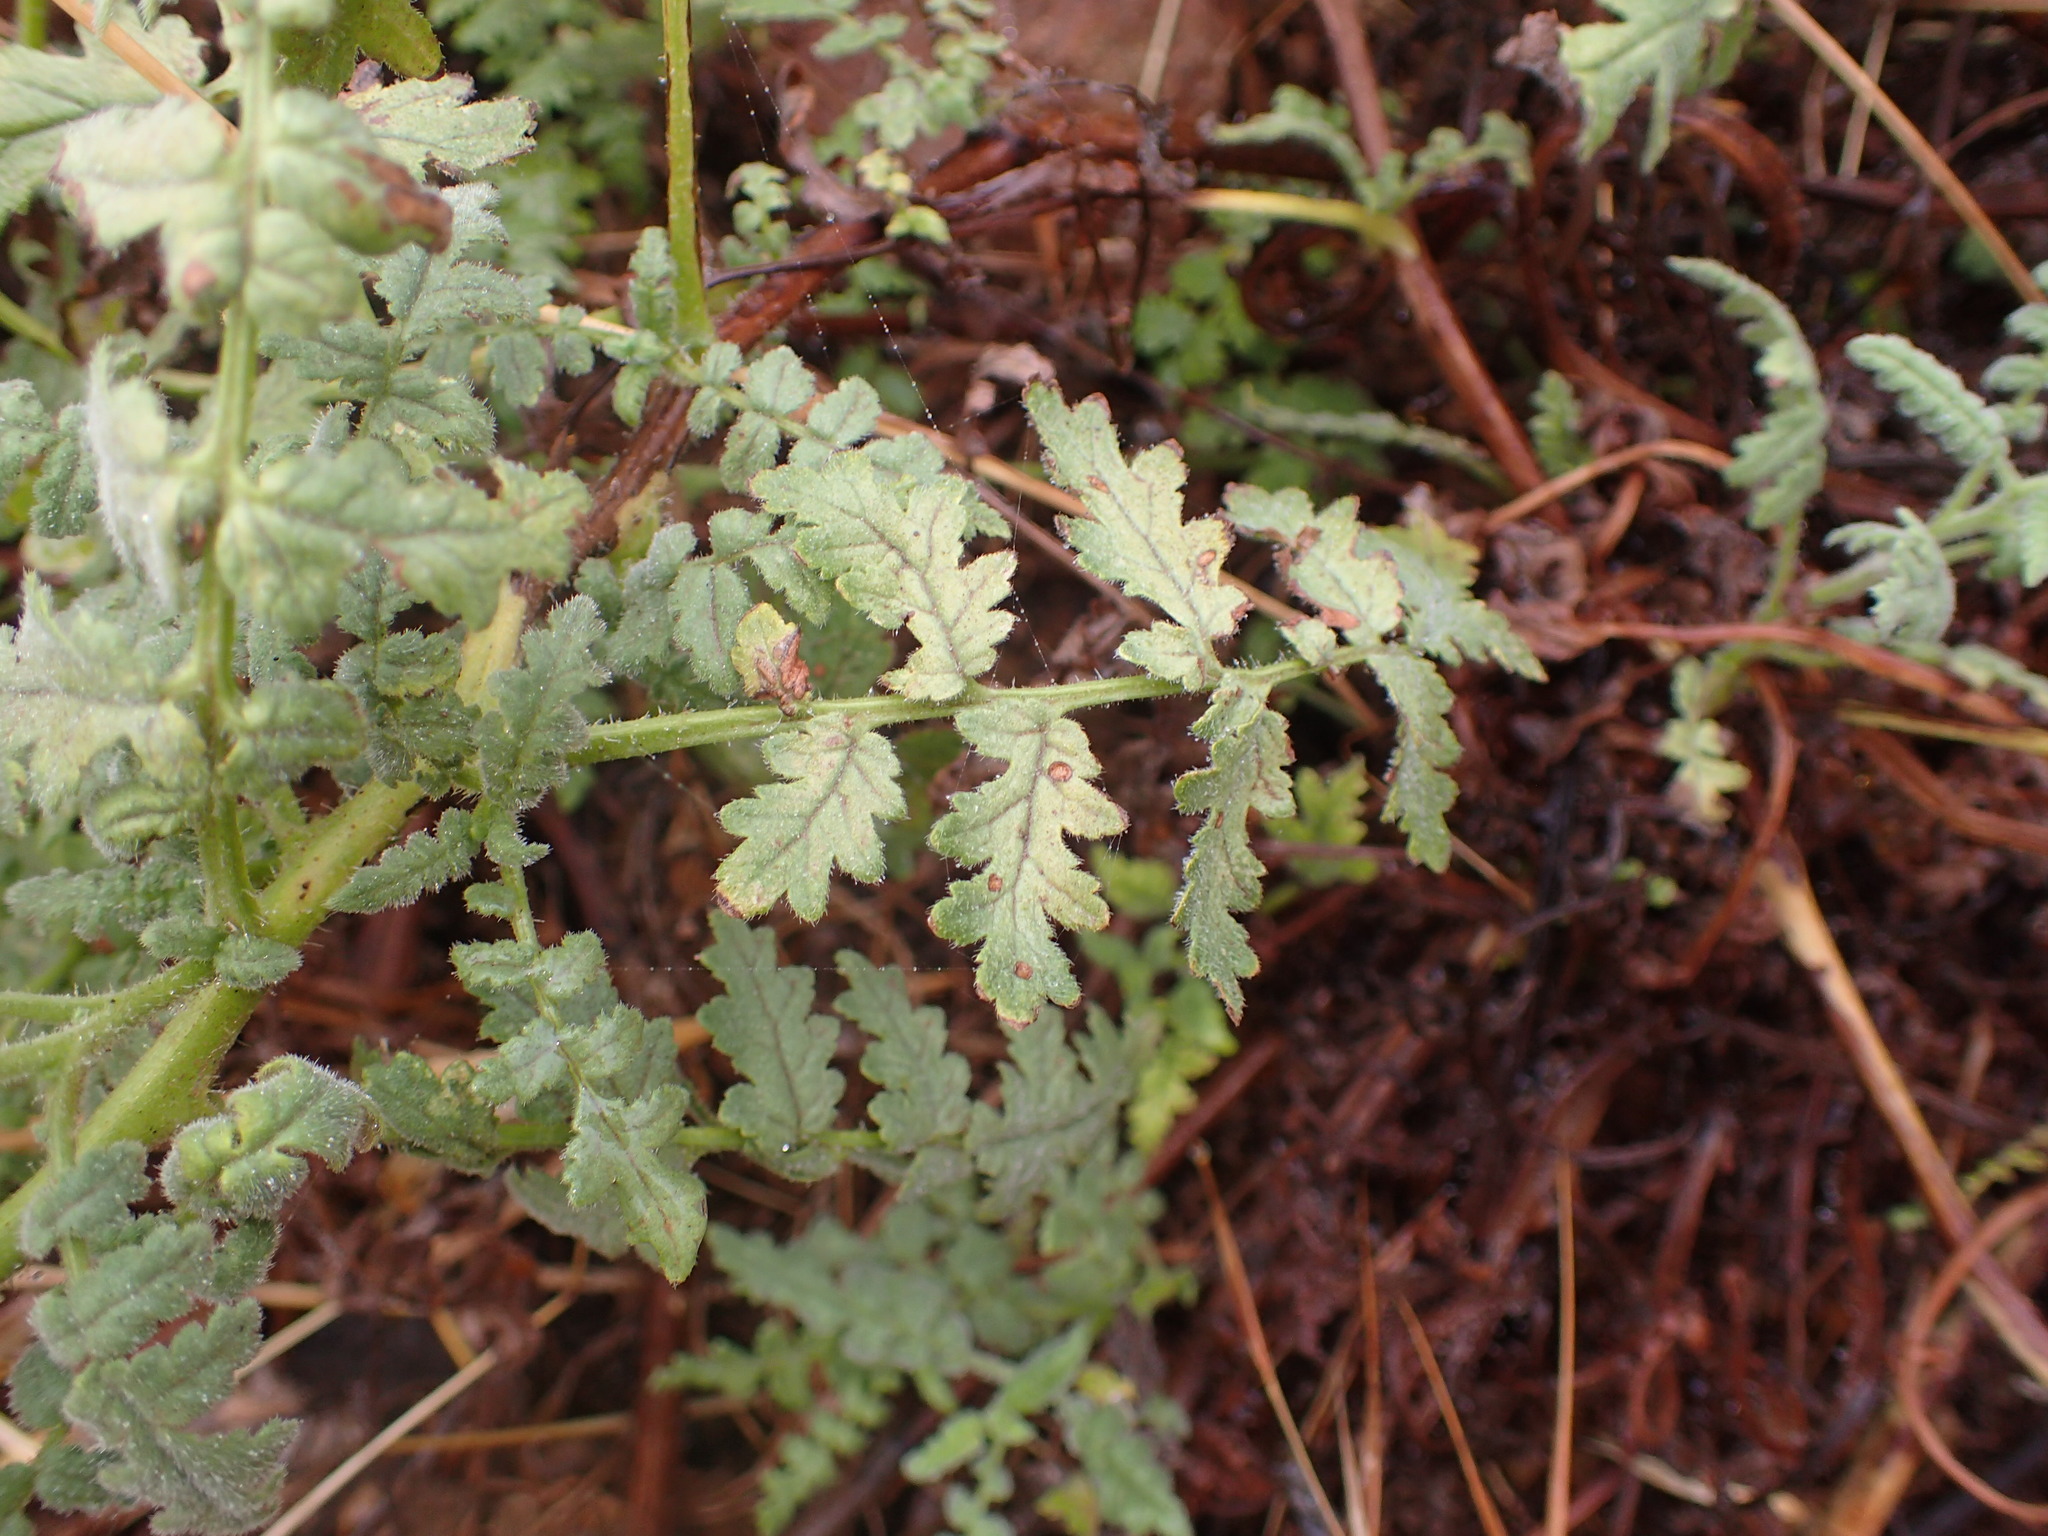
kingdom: Plantae
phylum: Tracheophyta
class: Magnoliopsida
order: Boraginales
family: Hydrophyllaceae
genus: Phacelia
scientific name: Phacelia ramosissima
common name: Branching phacelia
